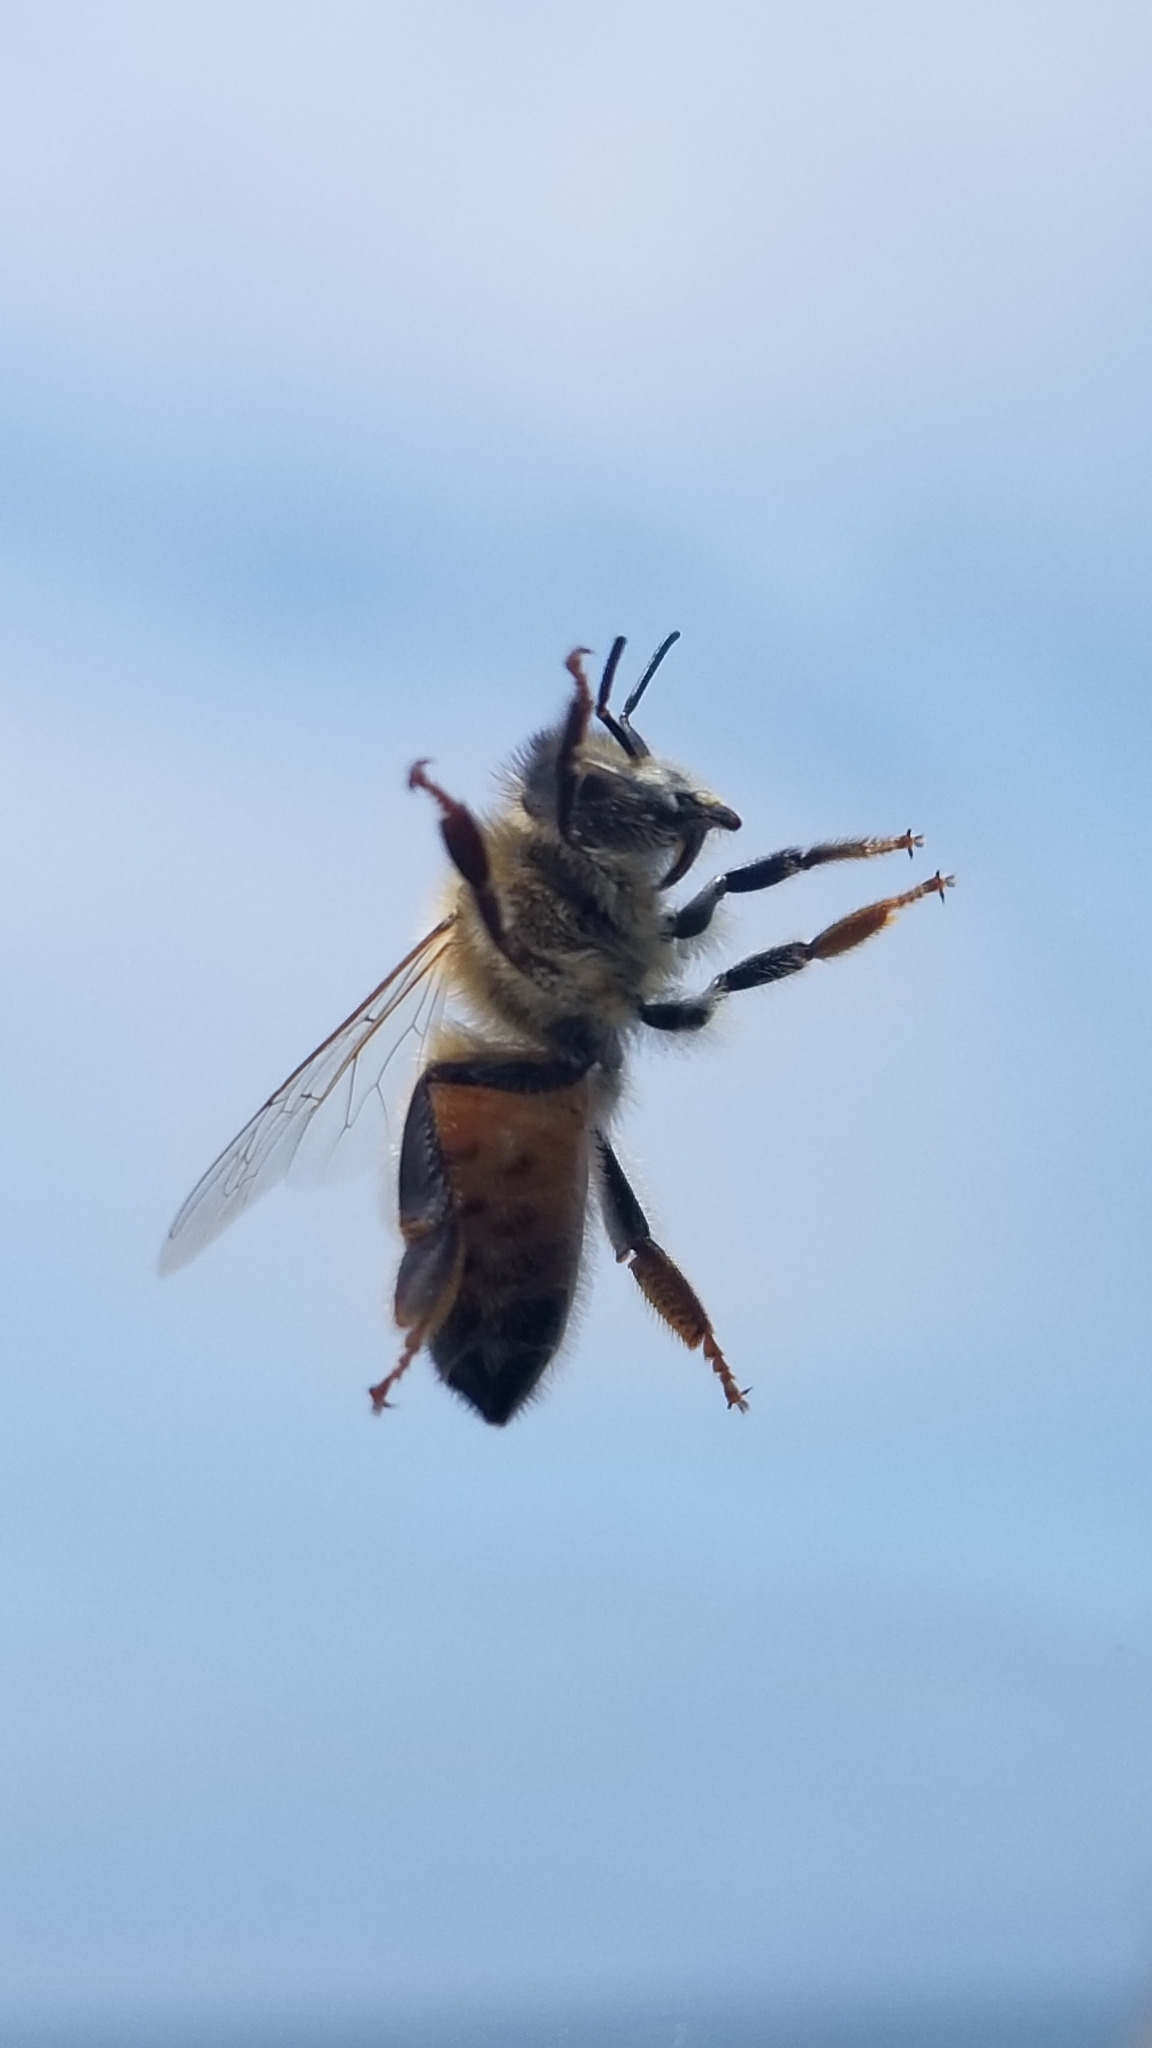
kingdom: Animalia
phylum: Arthropoda
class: Insecta
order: Hymenoptera
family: Apidae
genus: Apis
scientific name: Apis mellifera
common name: Honey bee
